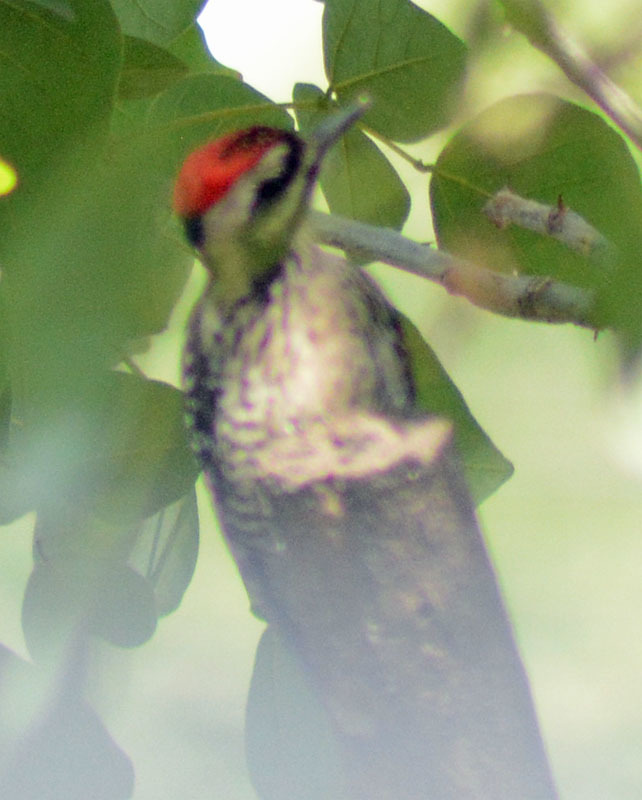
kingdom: Animalia
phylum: Chordata
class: Aves
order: Piciformes
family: Picidae
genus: Dryobates
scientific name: Dryobates scalaris
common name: Ladder-backed woodpecker
